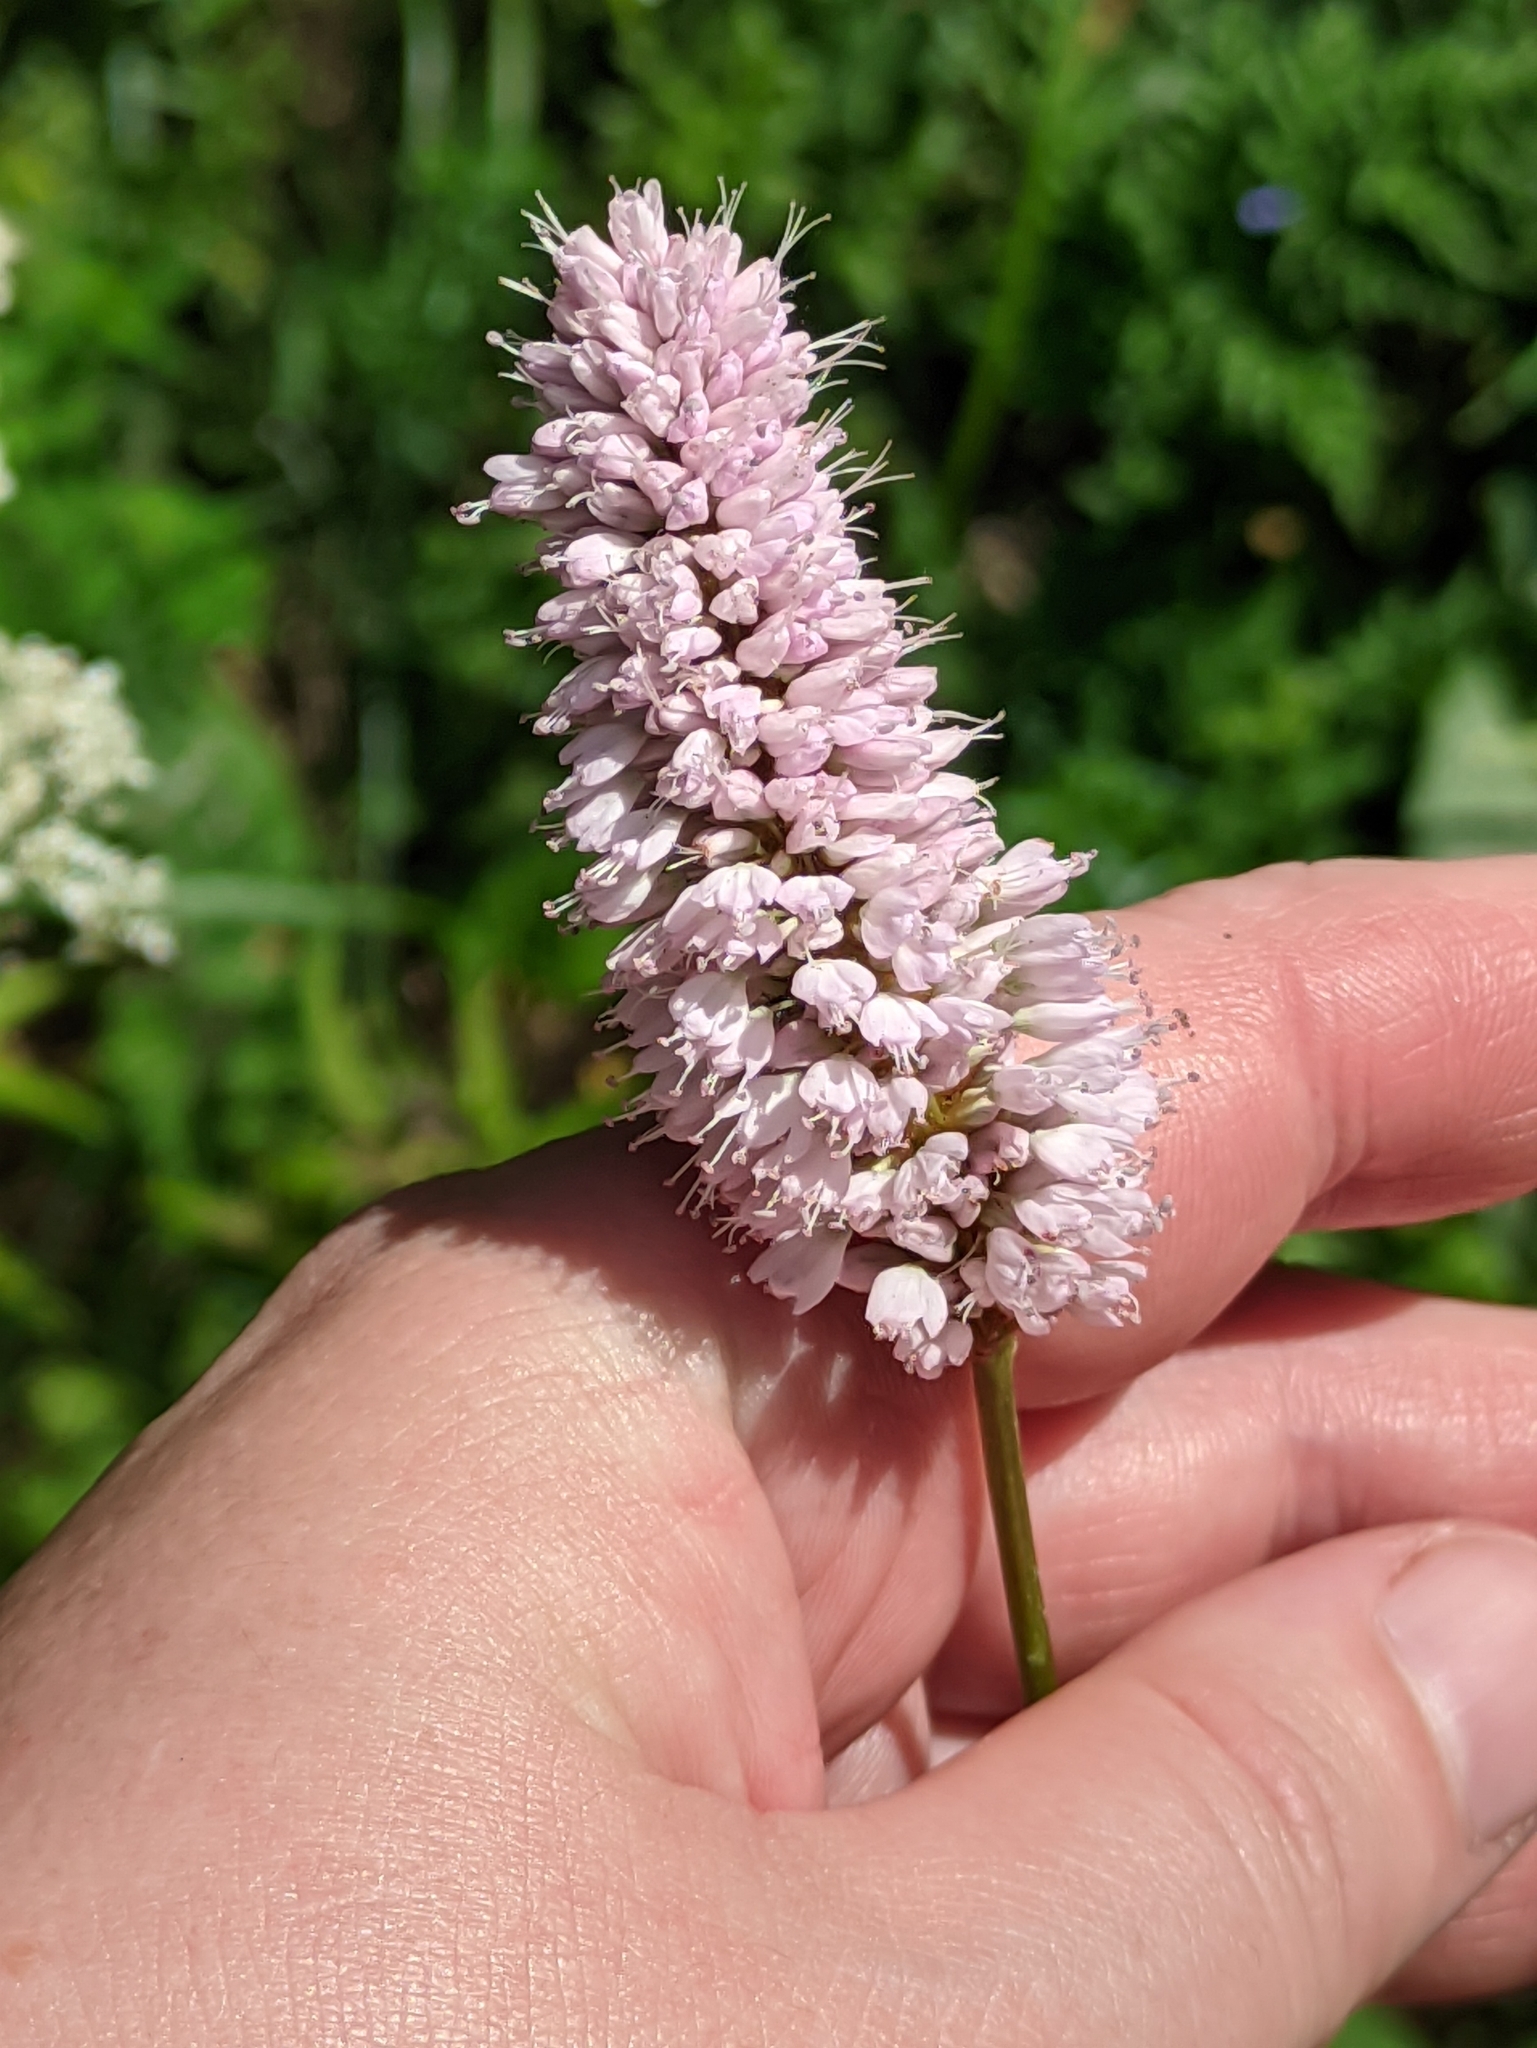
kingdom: Plantae
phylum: Tracheophyta
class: Magnoliopsida
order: Caryophyllales
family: Polygonaceae
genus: Bistorta
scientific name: Bistorta officinalis
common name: Common bistort
